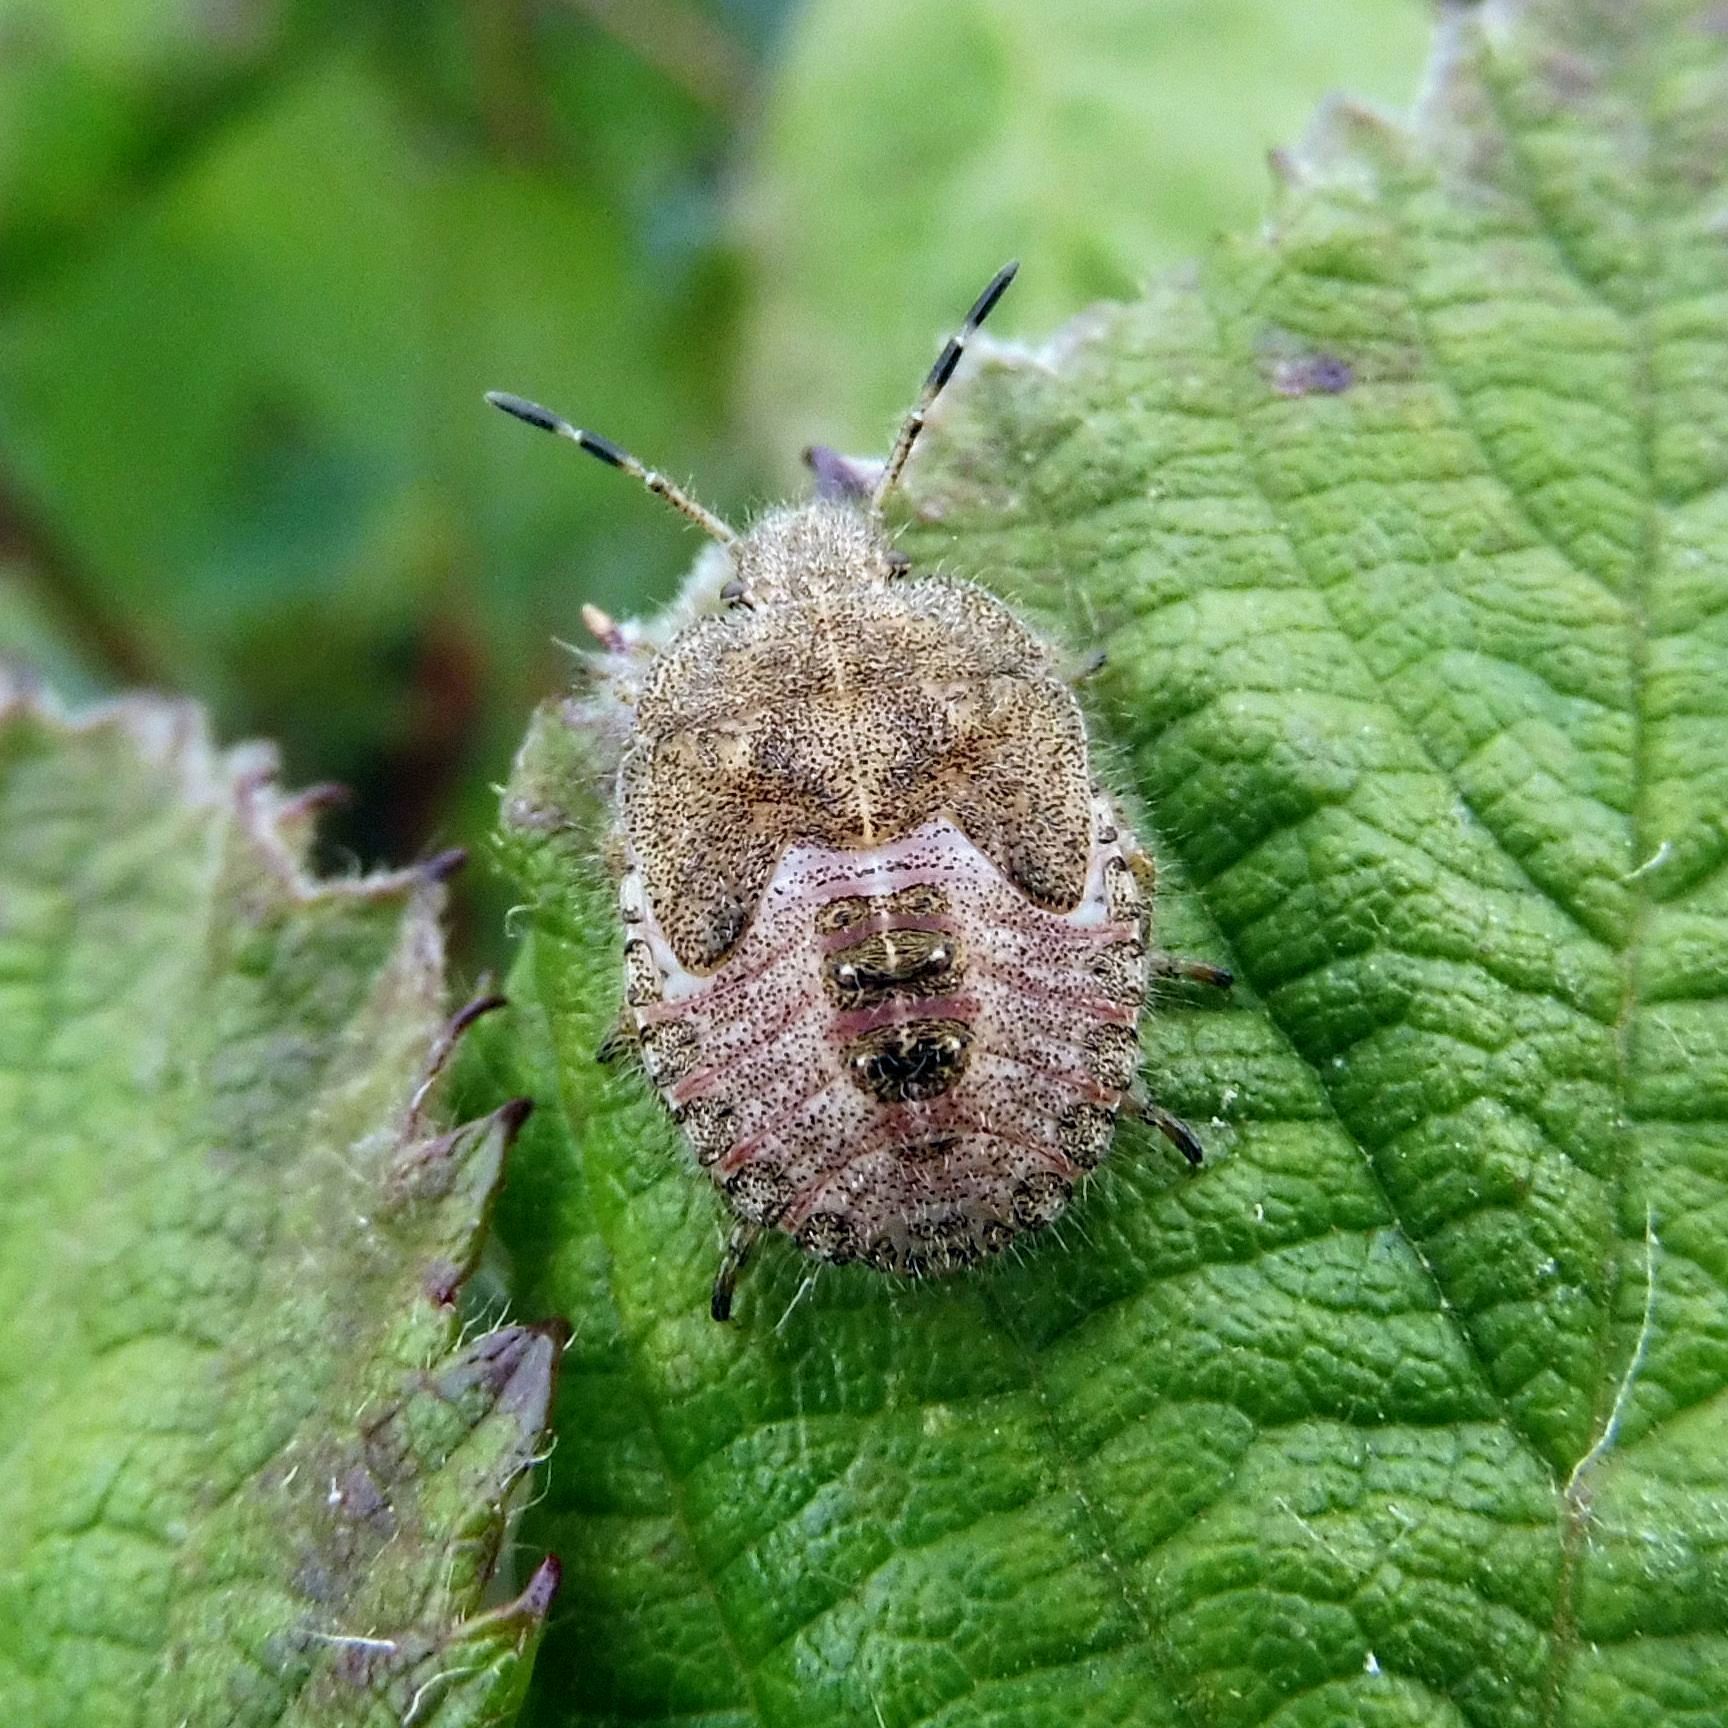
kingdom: Animalia
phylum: Arthropoda
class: Insecta
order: Hemiptera
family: Pentatomidae
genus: Dolycoris
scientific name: Dolycoris baccarum
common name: Sloe bug
